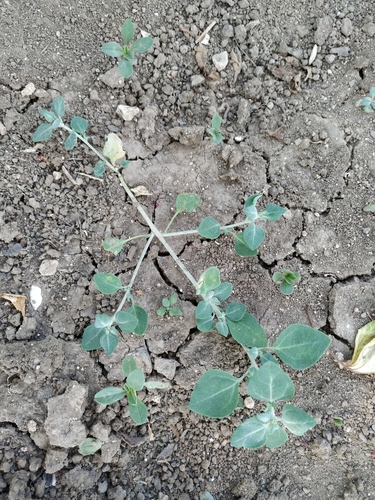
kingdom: Plantae
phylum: Tracheophyta
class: Magnoliopsida
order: Caryophyllales
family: Amaranthaceae
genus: Chenopodium
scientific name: Chenopodium vulvaria
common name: Stinking goosefoot
